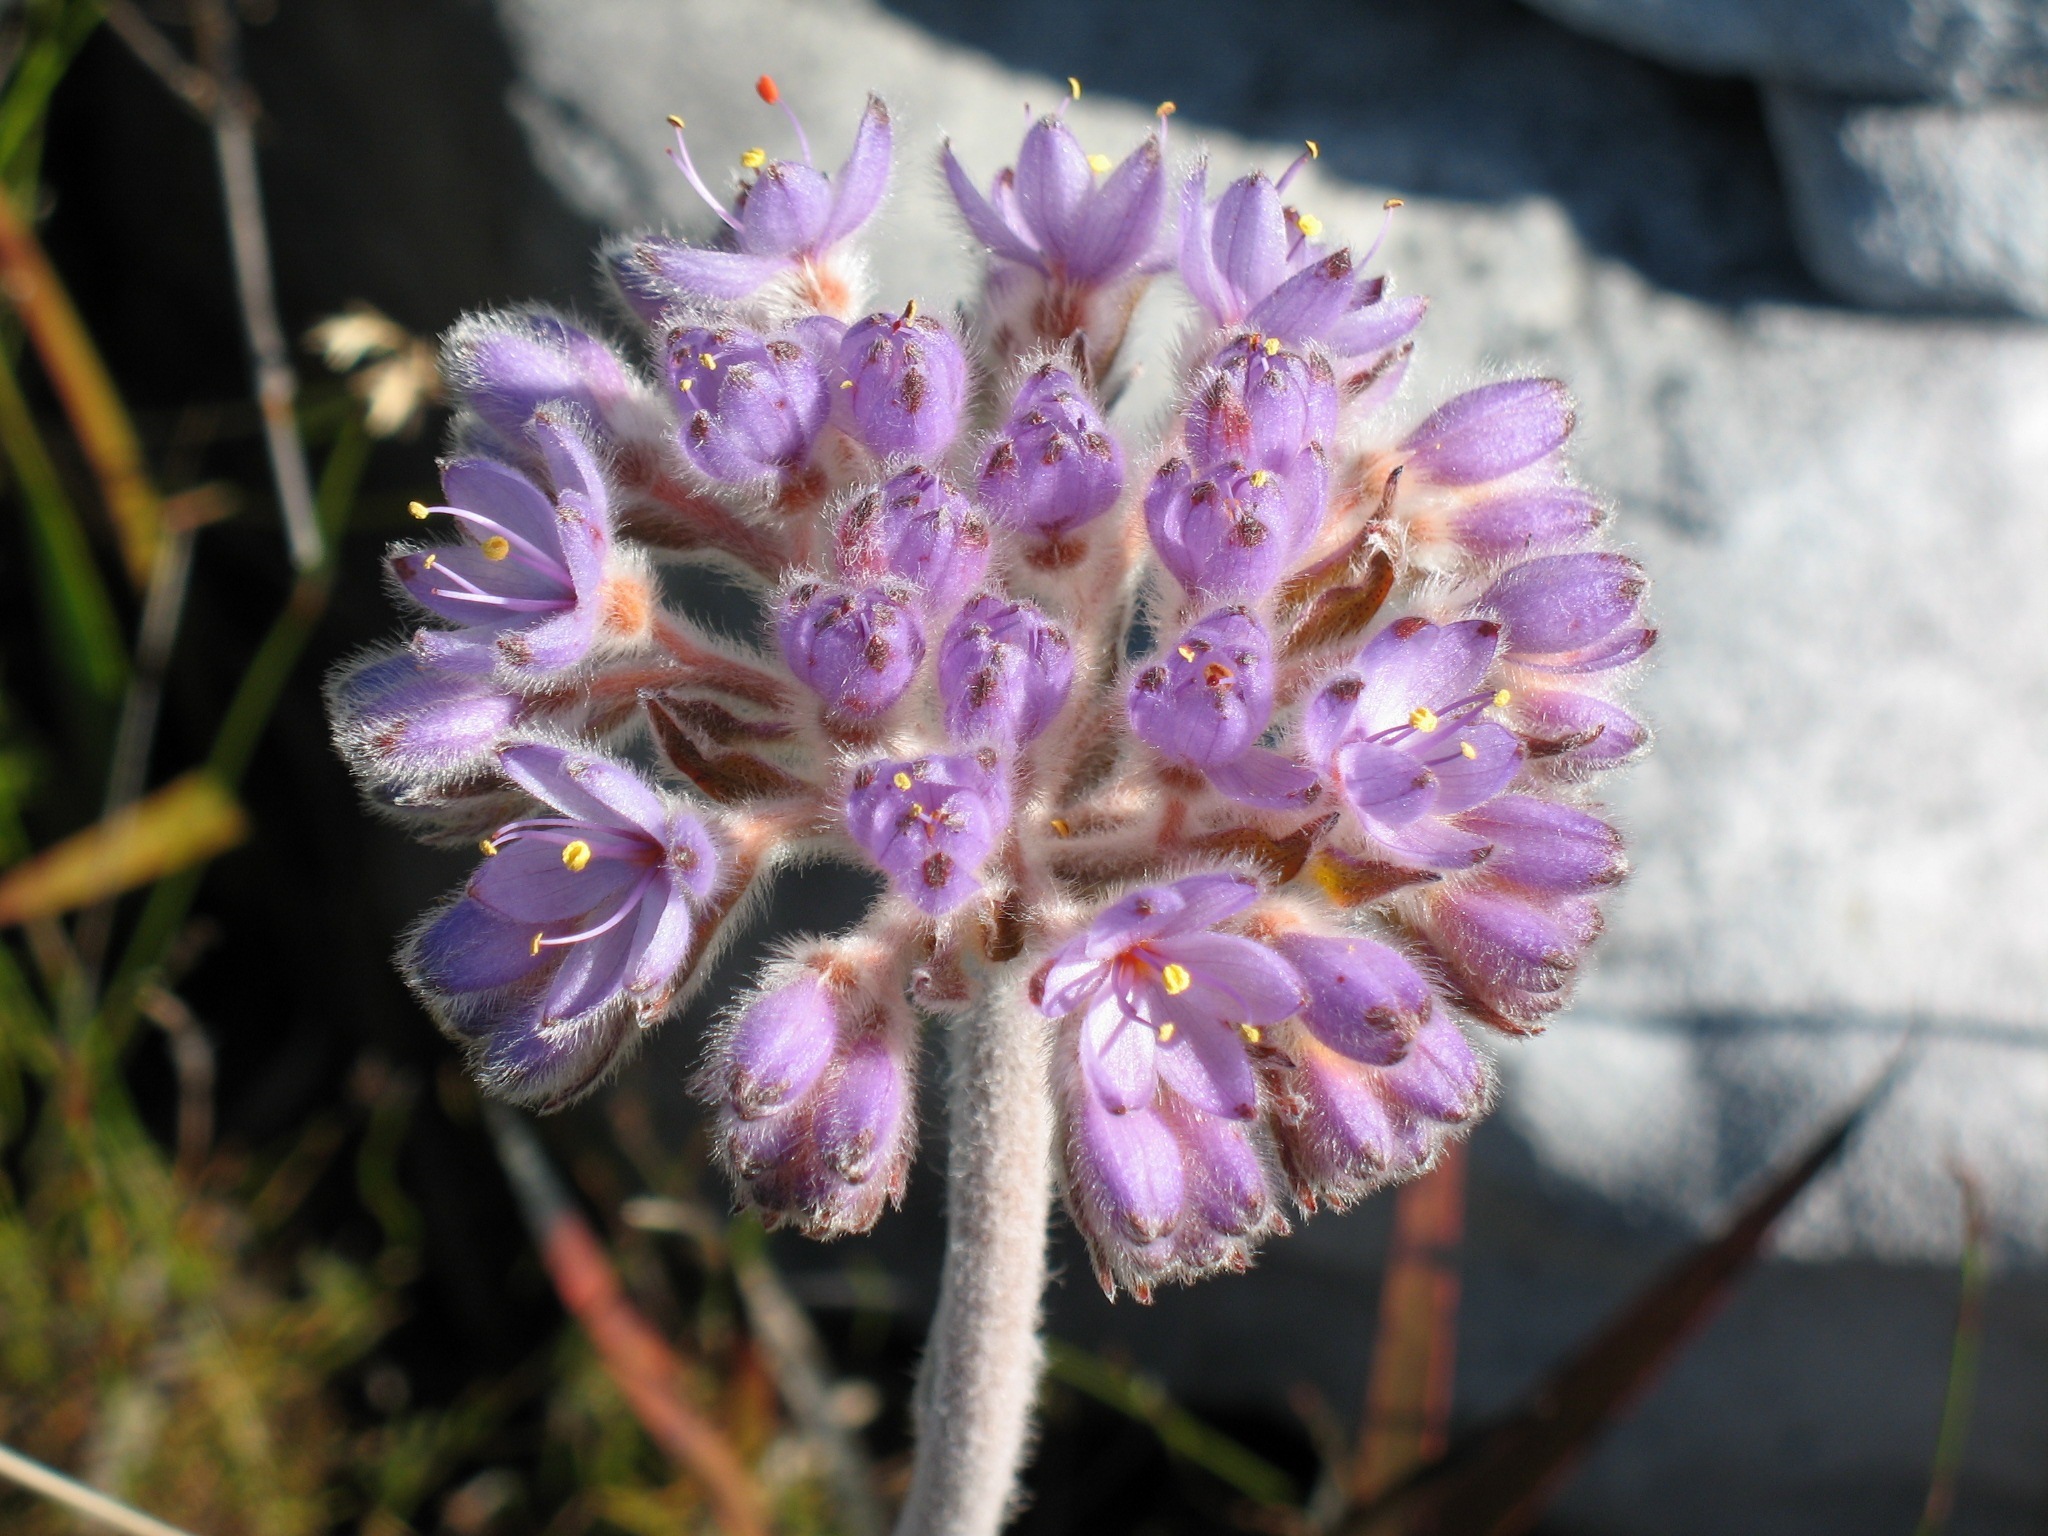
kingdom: Plantae
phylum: Tracheophyta
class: Liliopsida
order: Commelinales
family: Haemodoraceae
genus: Dilatris
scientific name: Dilatris corymbosa
